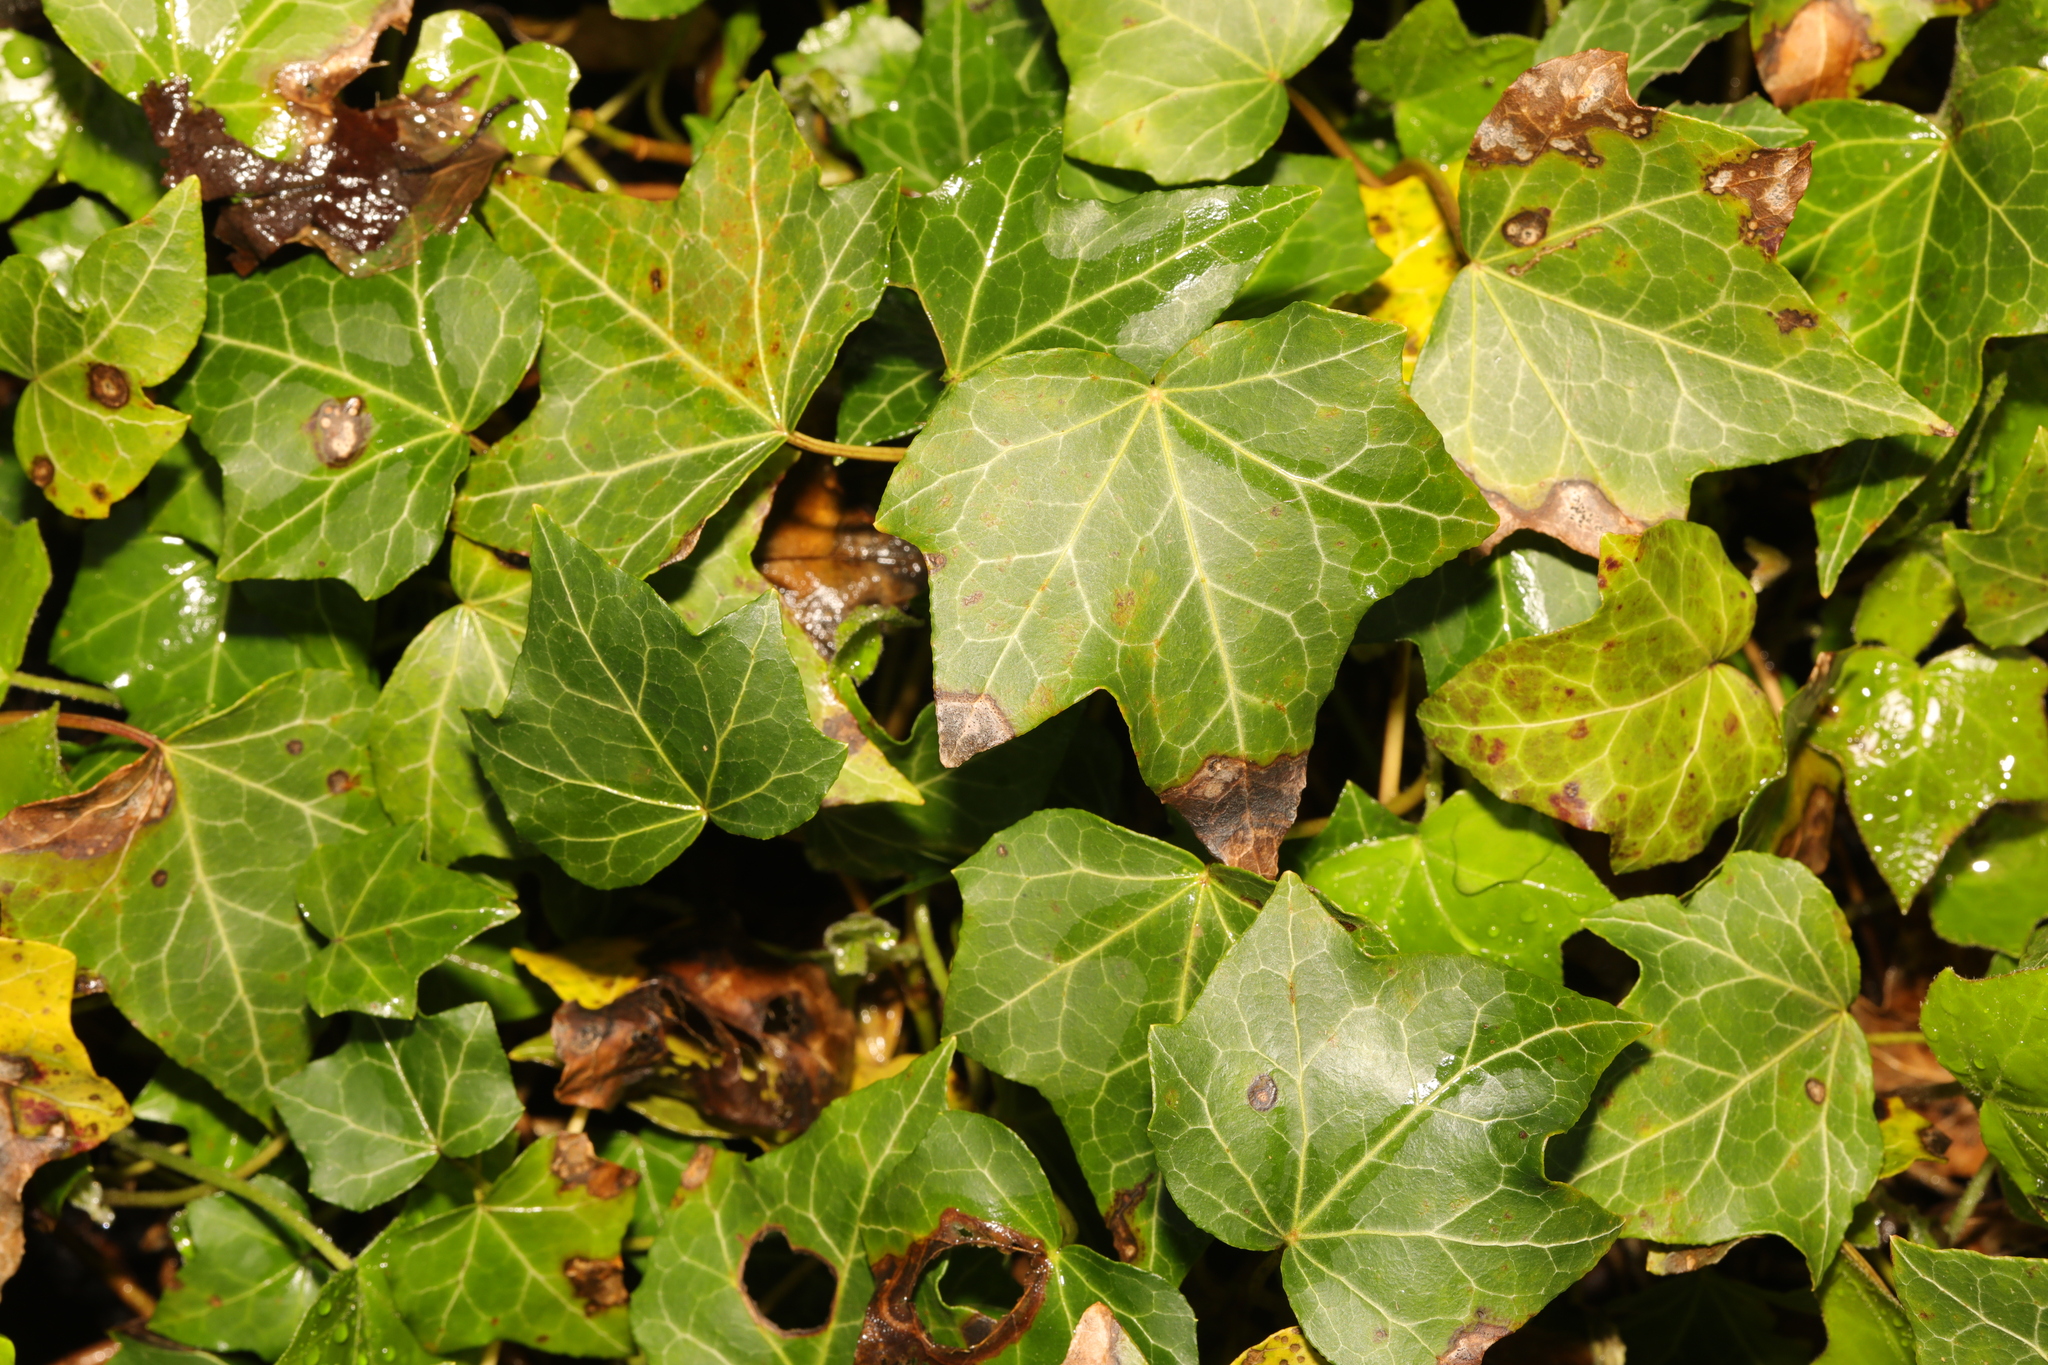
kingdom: Plantae
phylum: Tracheophyta
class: Magnoliopsida
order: Apiales
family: Araliaceae
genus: Hedera
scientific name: Hedera helix
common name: Ivy
